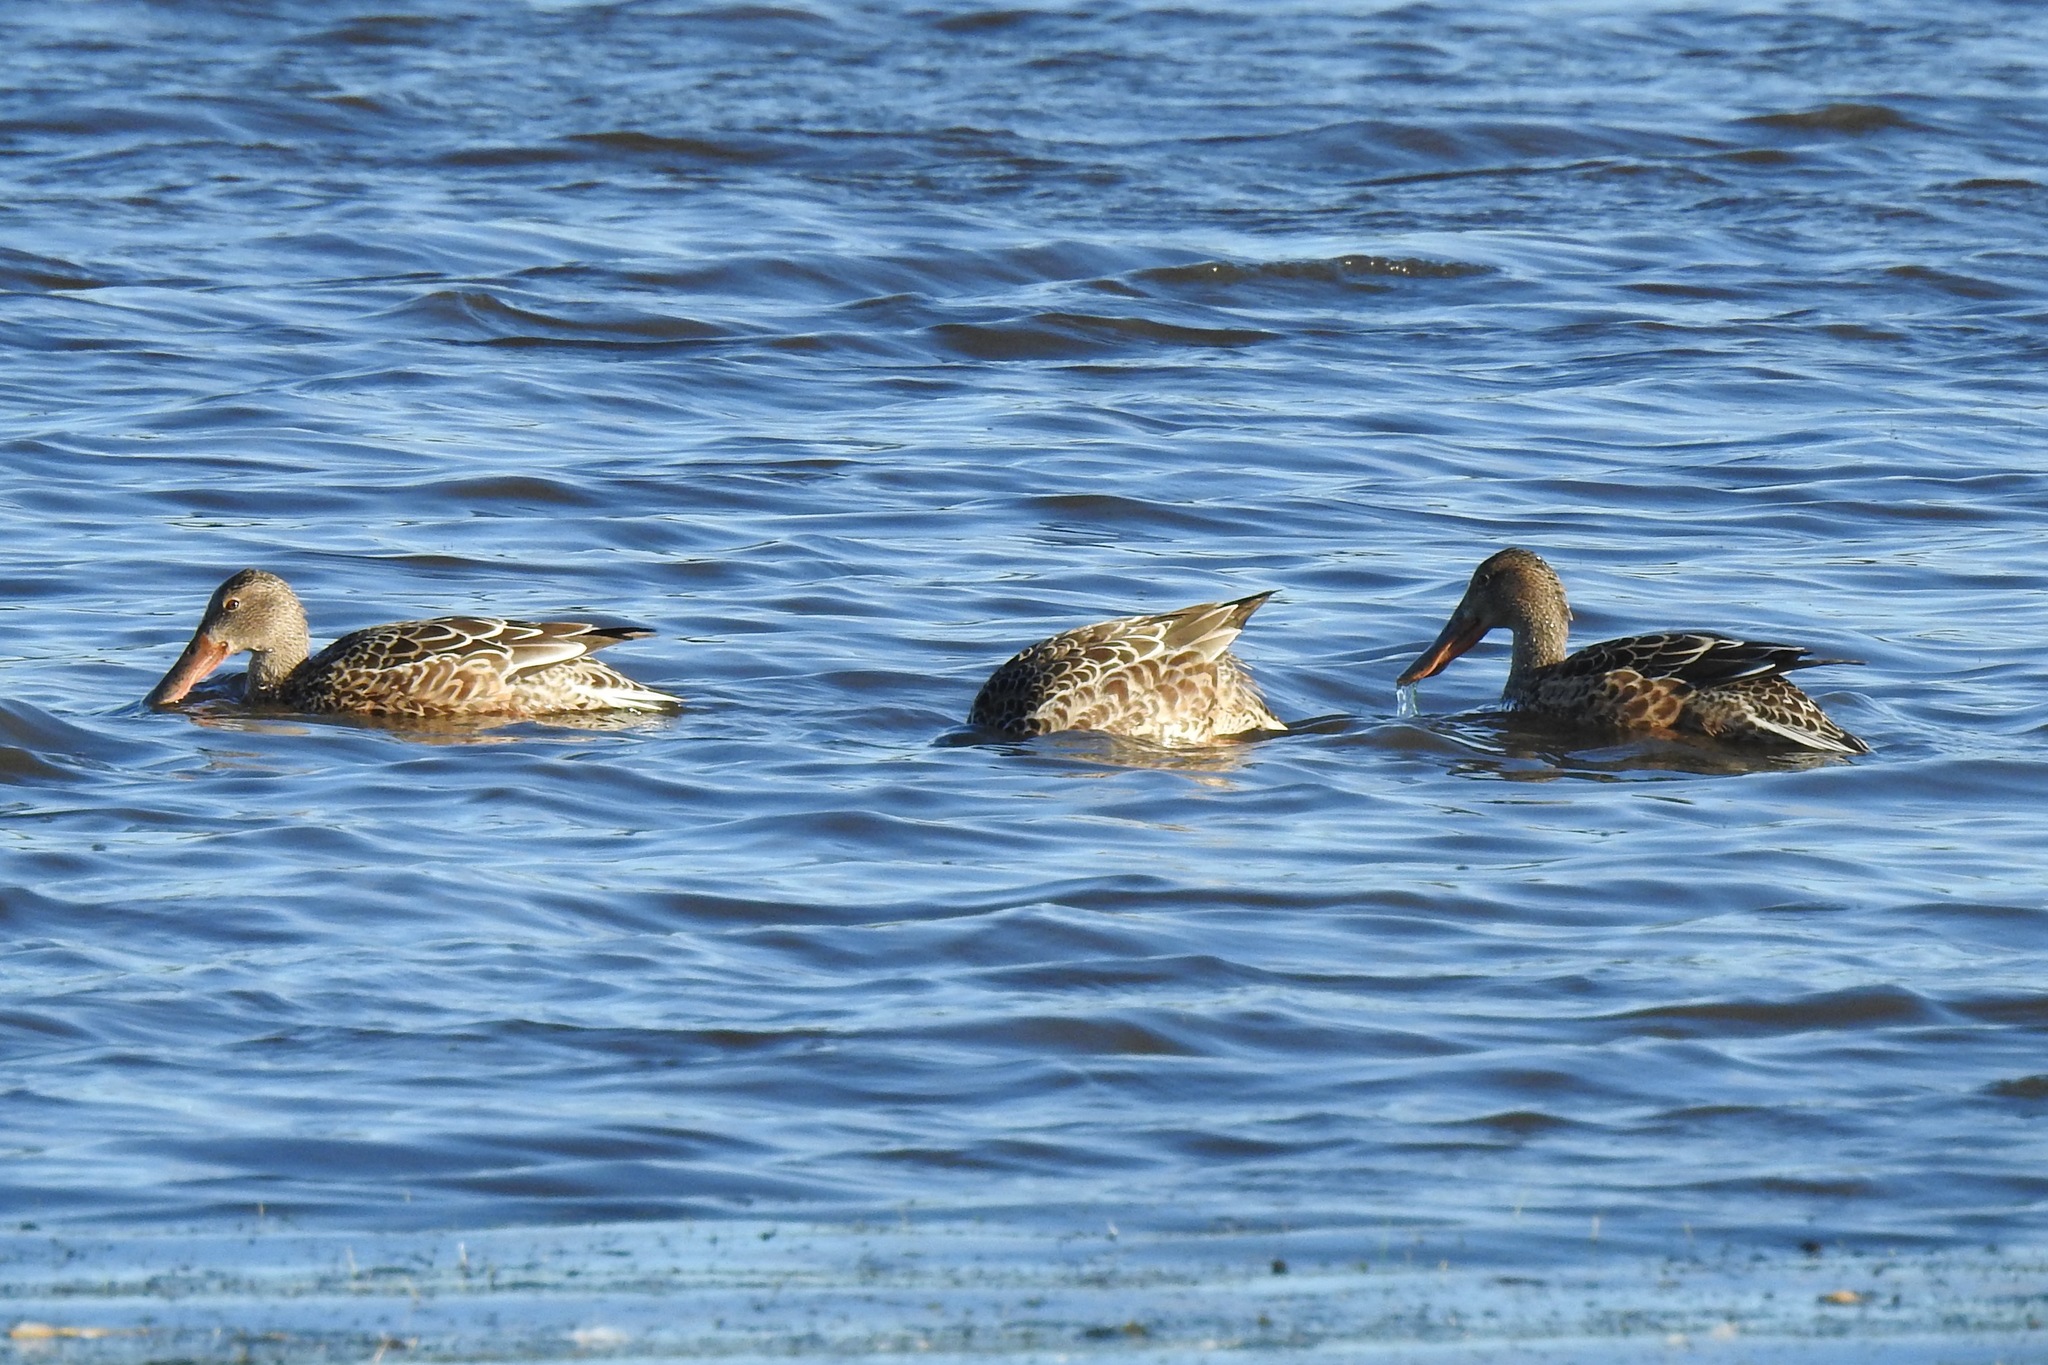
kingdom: Animalia
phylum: Chordata
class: Aves
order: Anseriformes
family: Anatidae
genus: Spatula
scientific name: Spatula clypeata
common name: Northern shoveler
